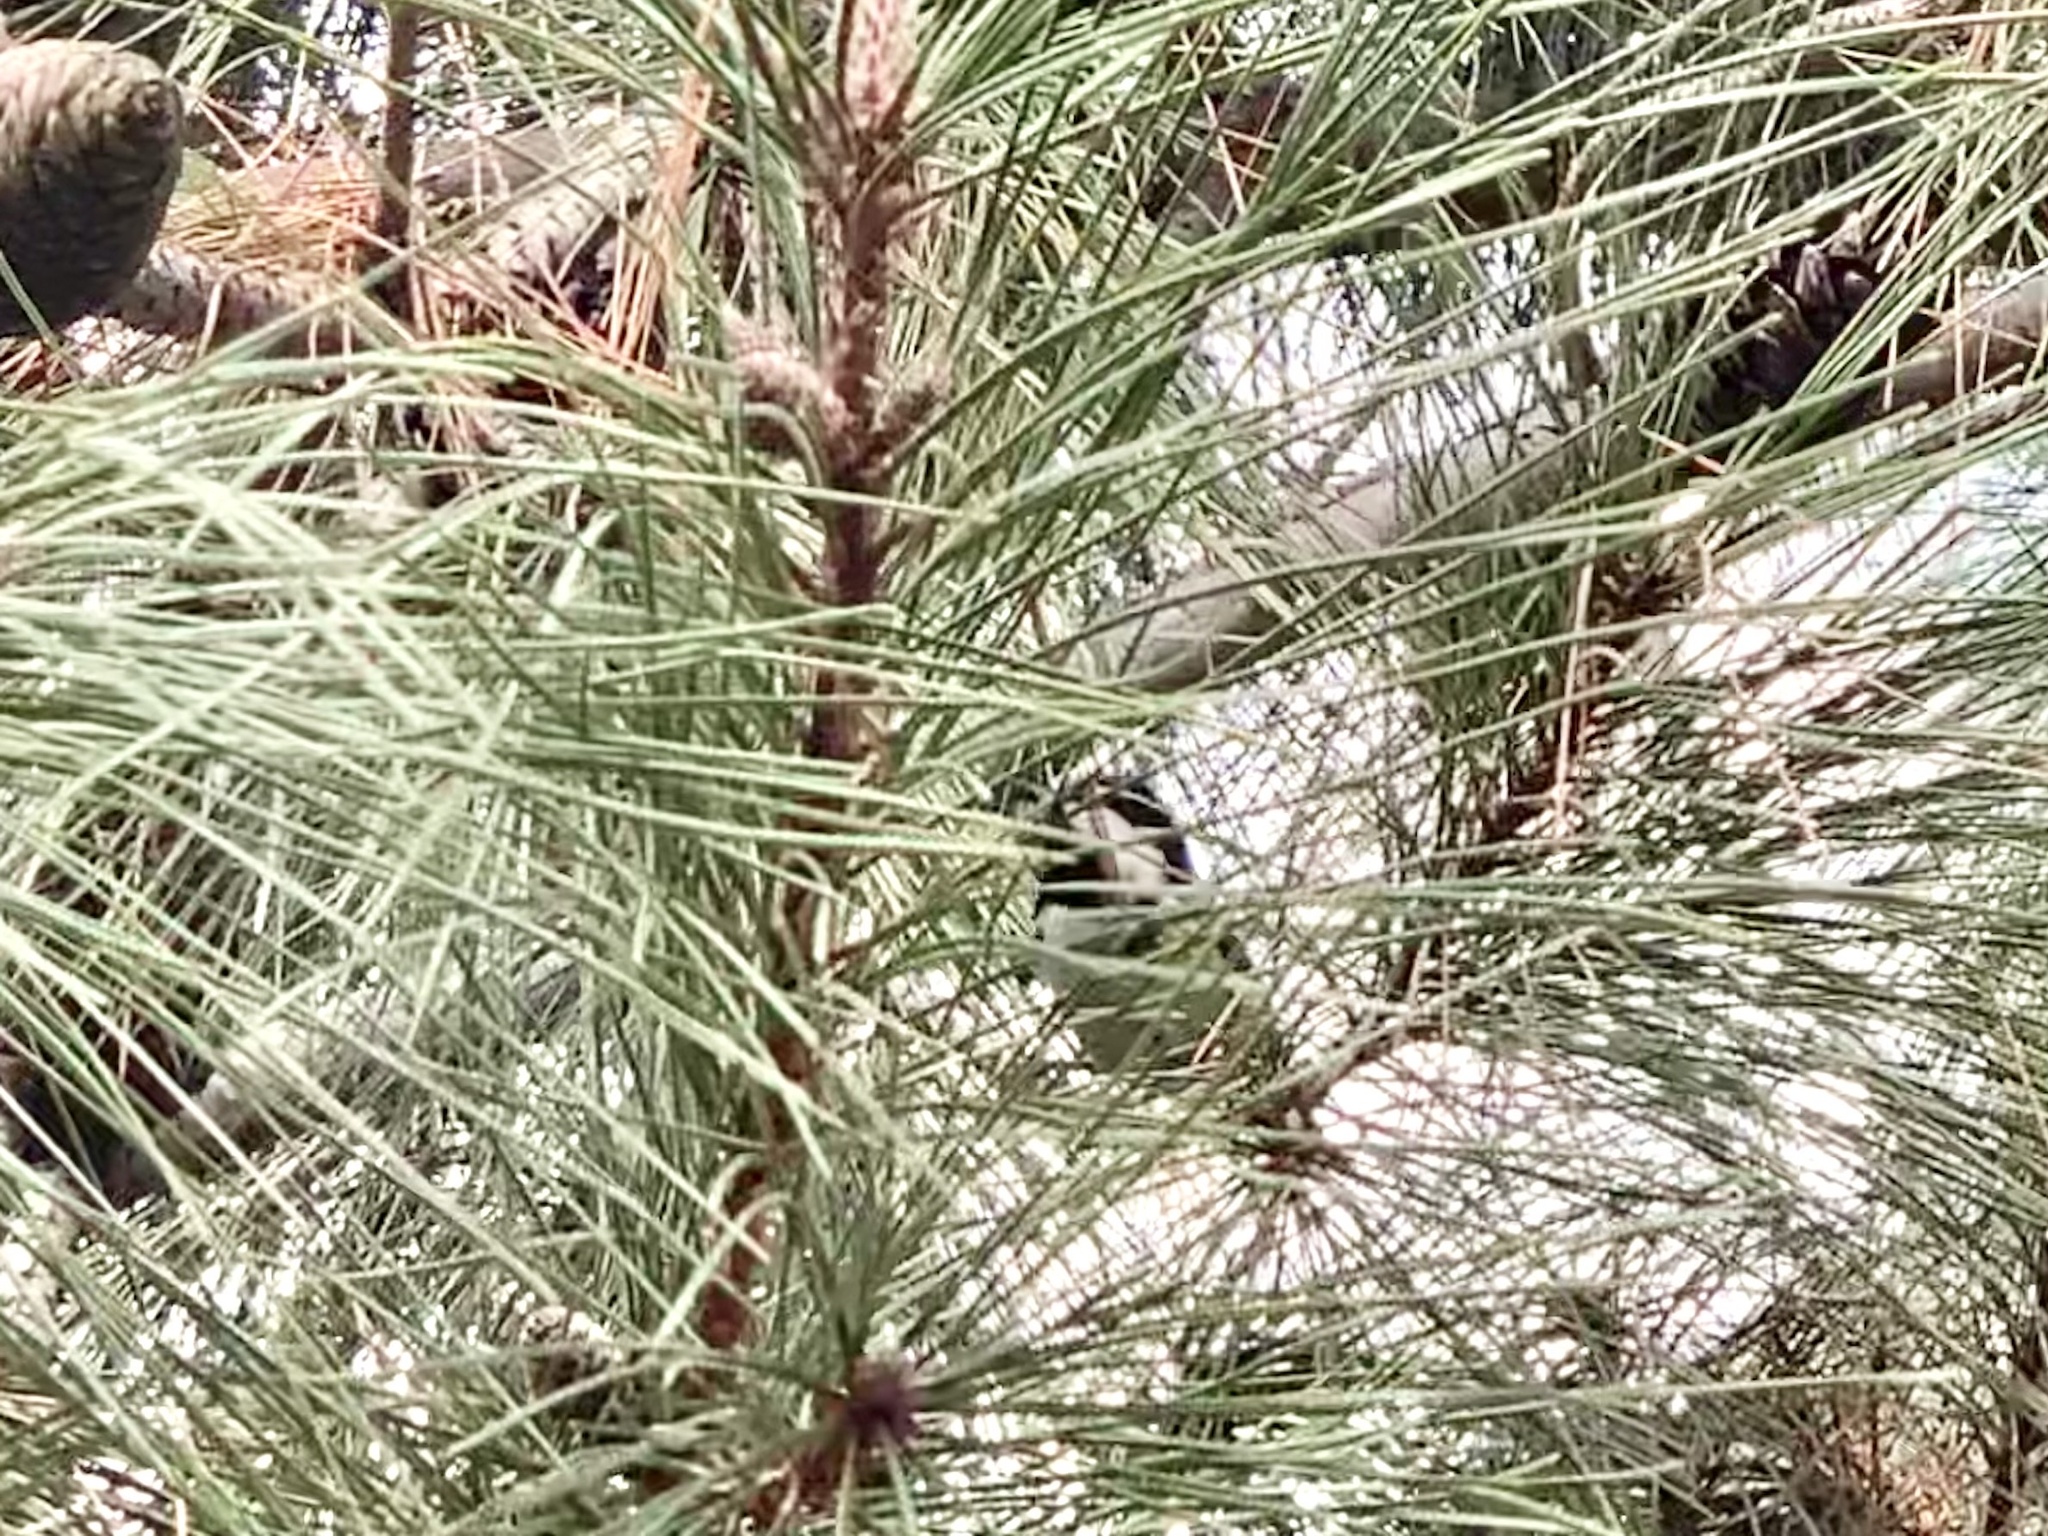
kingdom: Animalia
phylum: Chordata
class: Aves
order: Passeriformes
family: Paridae
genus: Periparus
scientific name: Periparus ater
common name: Coal tit
